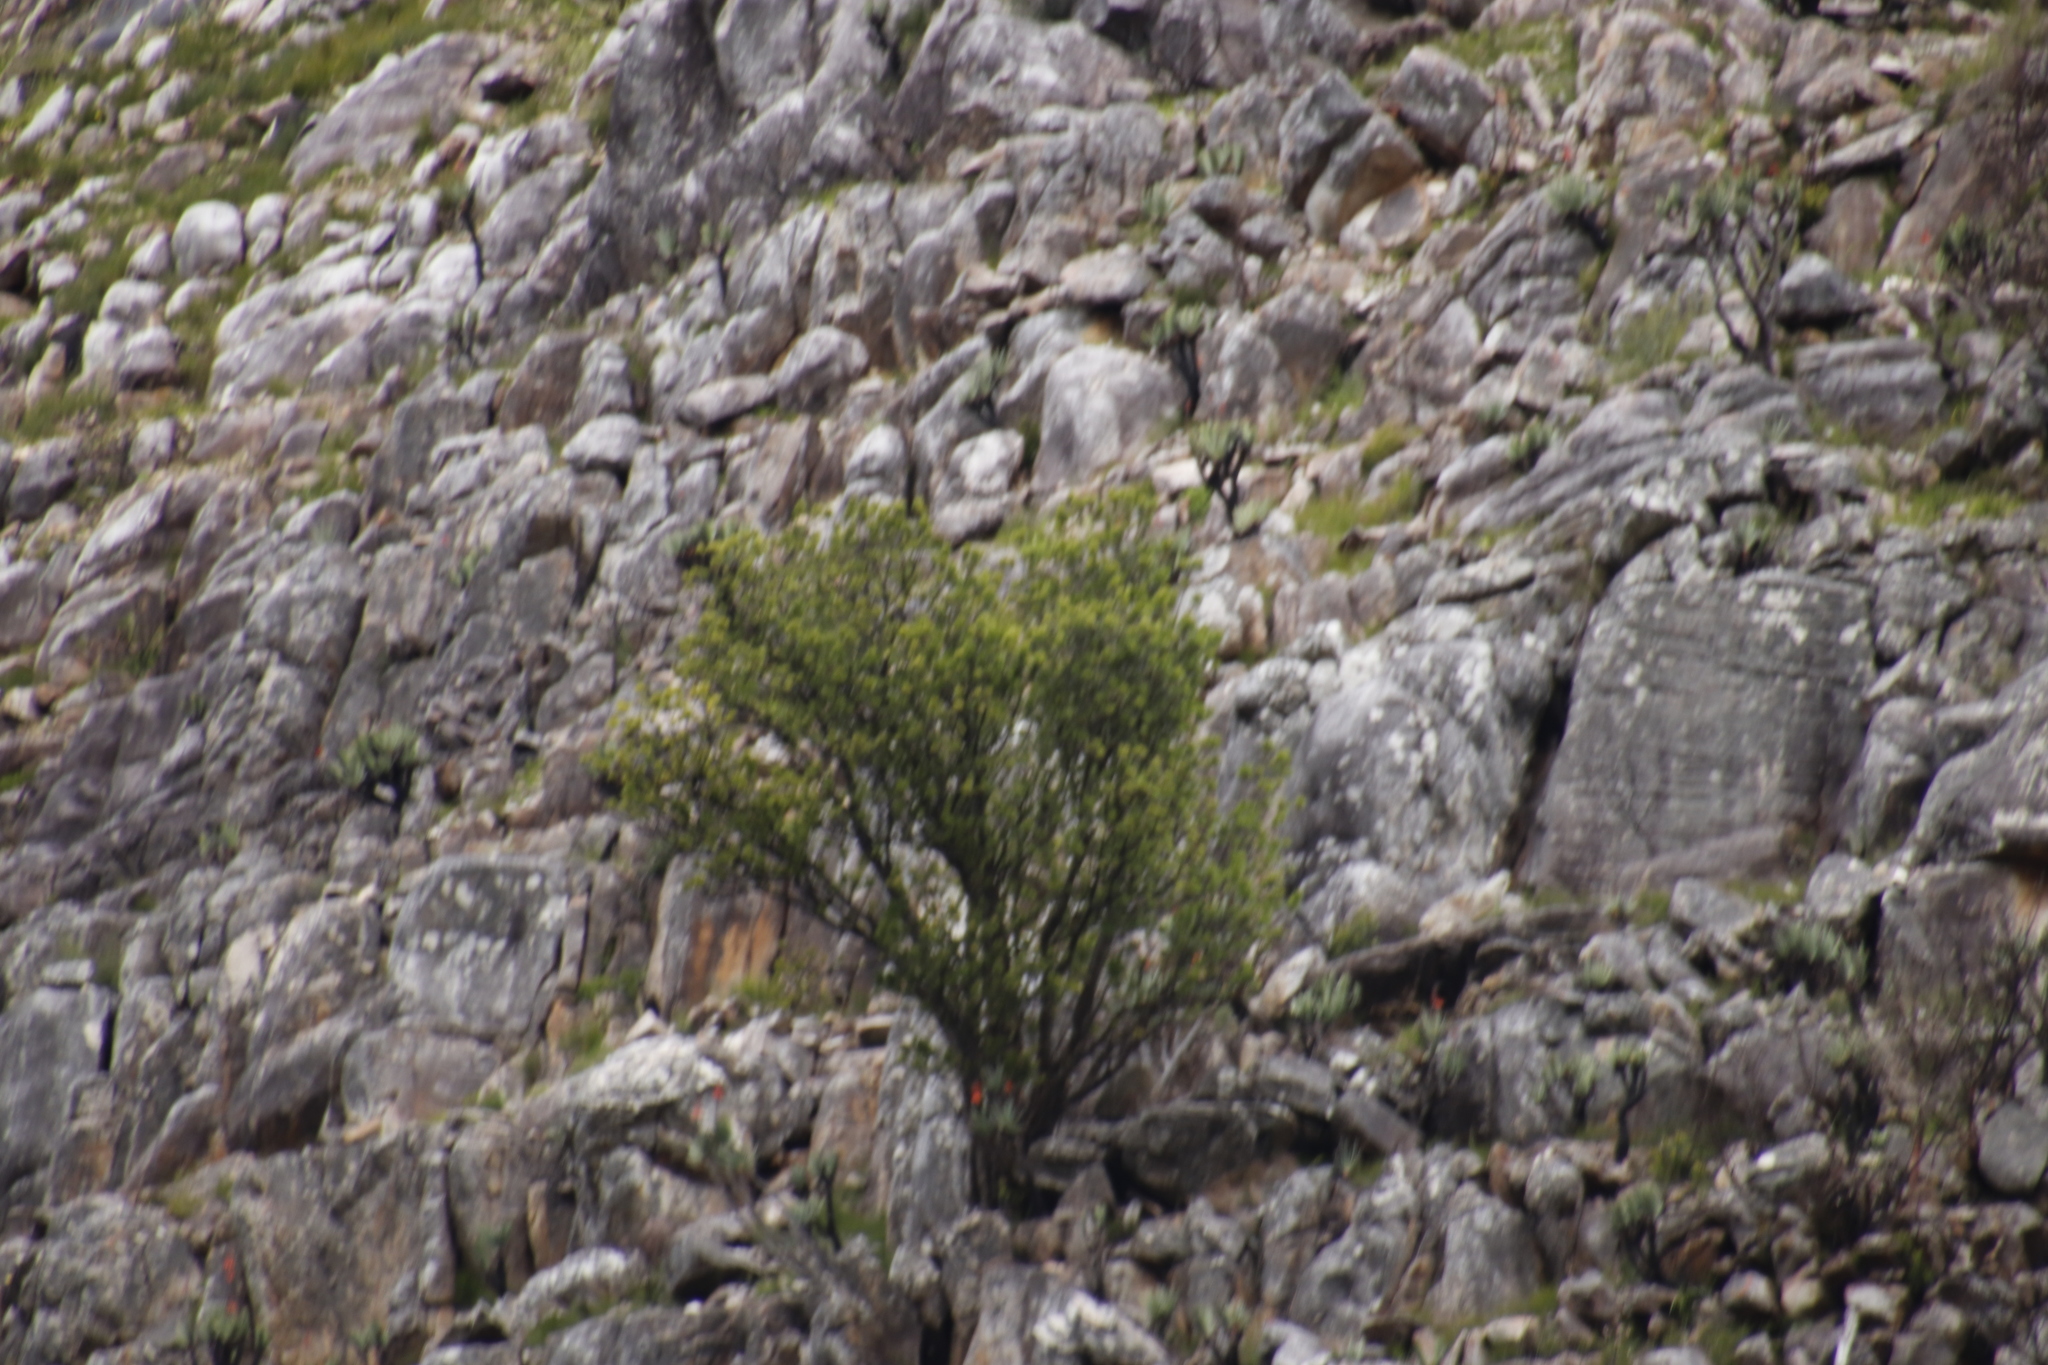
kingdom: Plantae
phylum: Tracheophyta
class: Magnoliopsida
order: Sapindales
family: Anacardiaceae
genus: Heeria
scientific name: Heeria argentea
